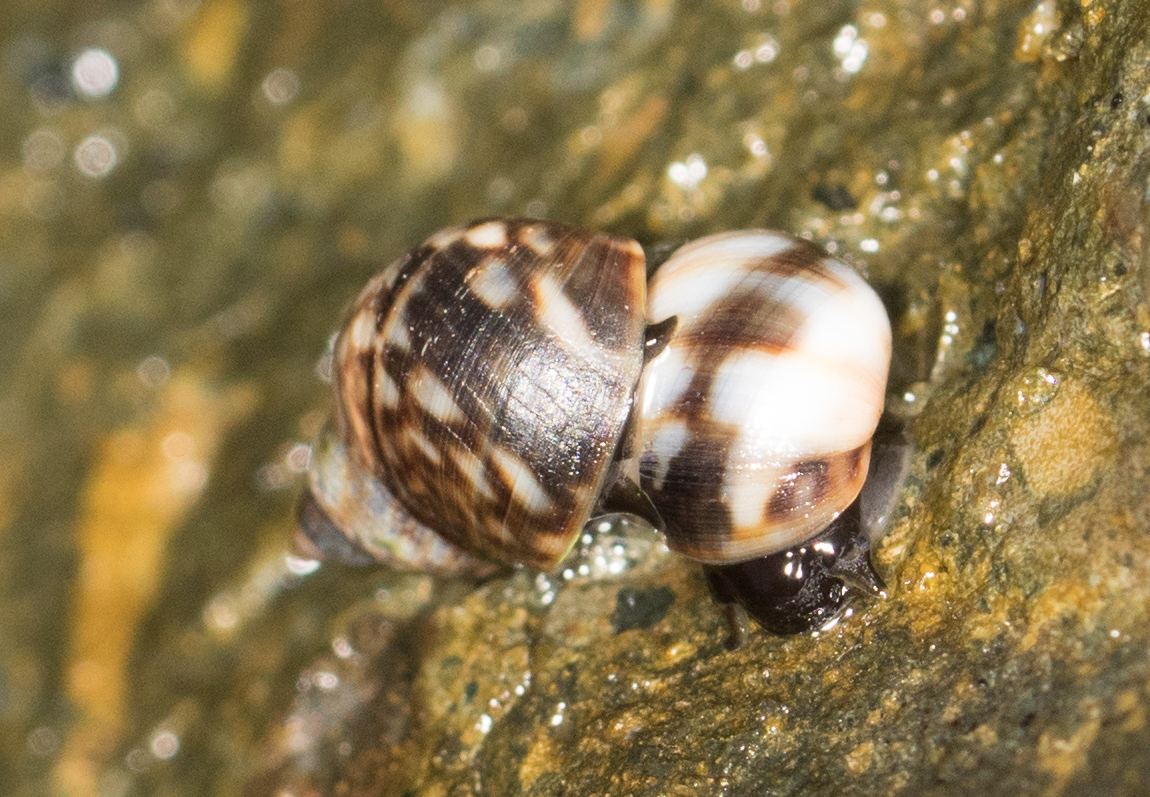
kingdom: Animalia
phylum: Mollusca
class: Gastropoda
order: Littorinimorpha
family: Littorinidae
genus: Littorina
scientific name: Littorina keenae
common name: Eroded periwinkle
